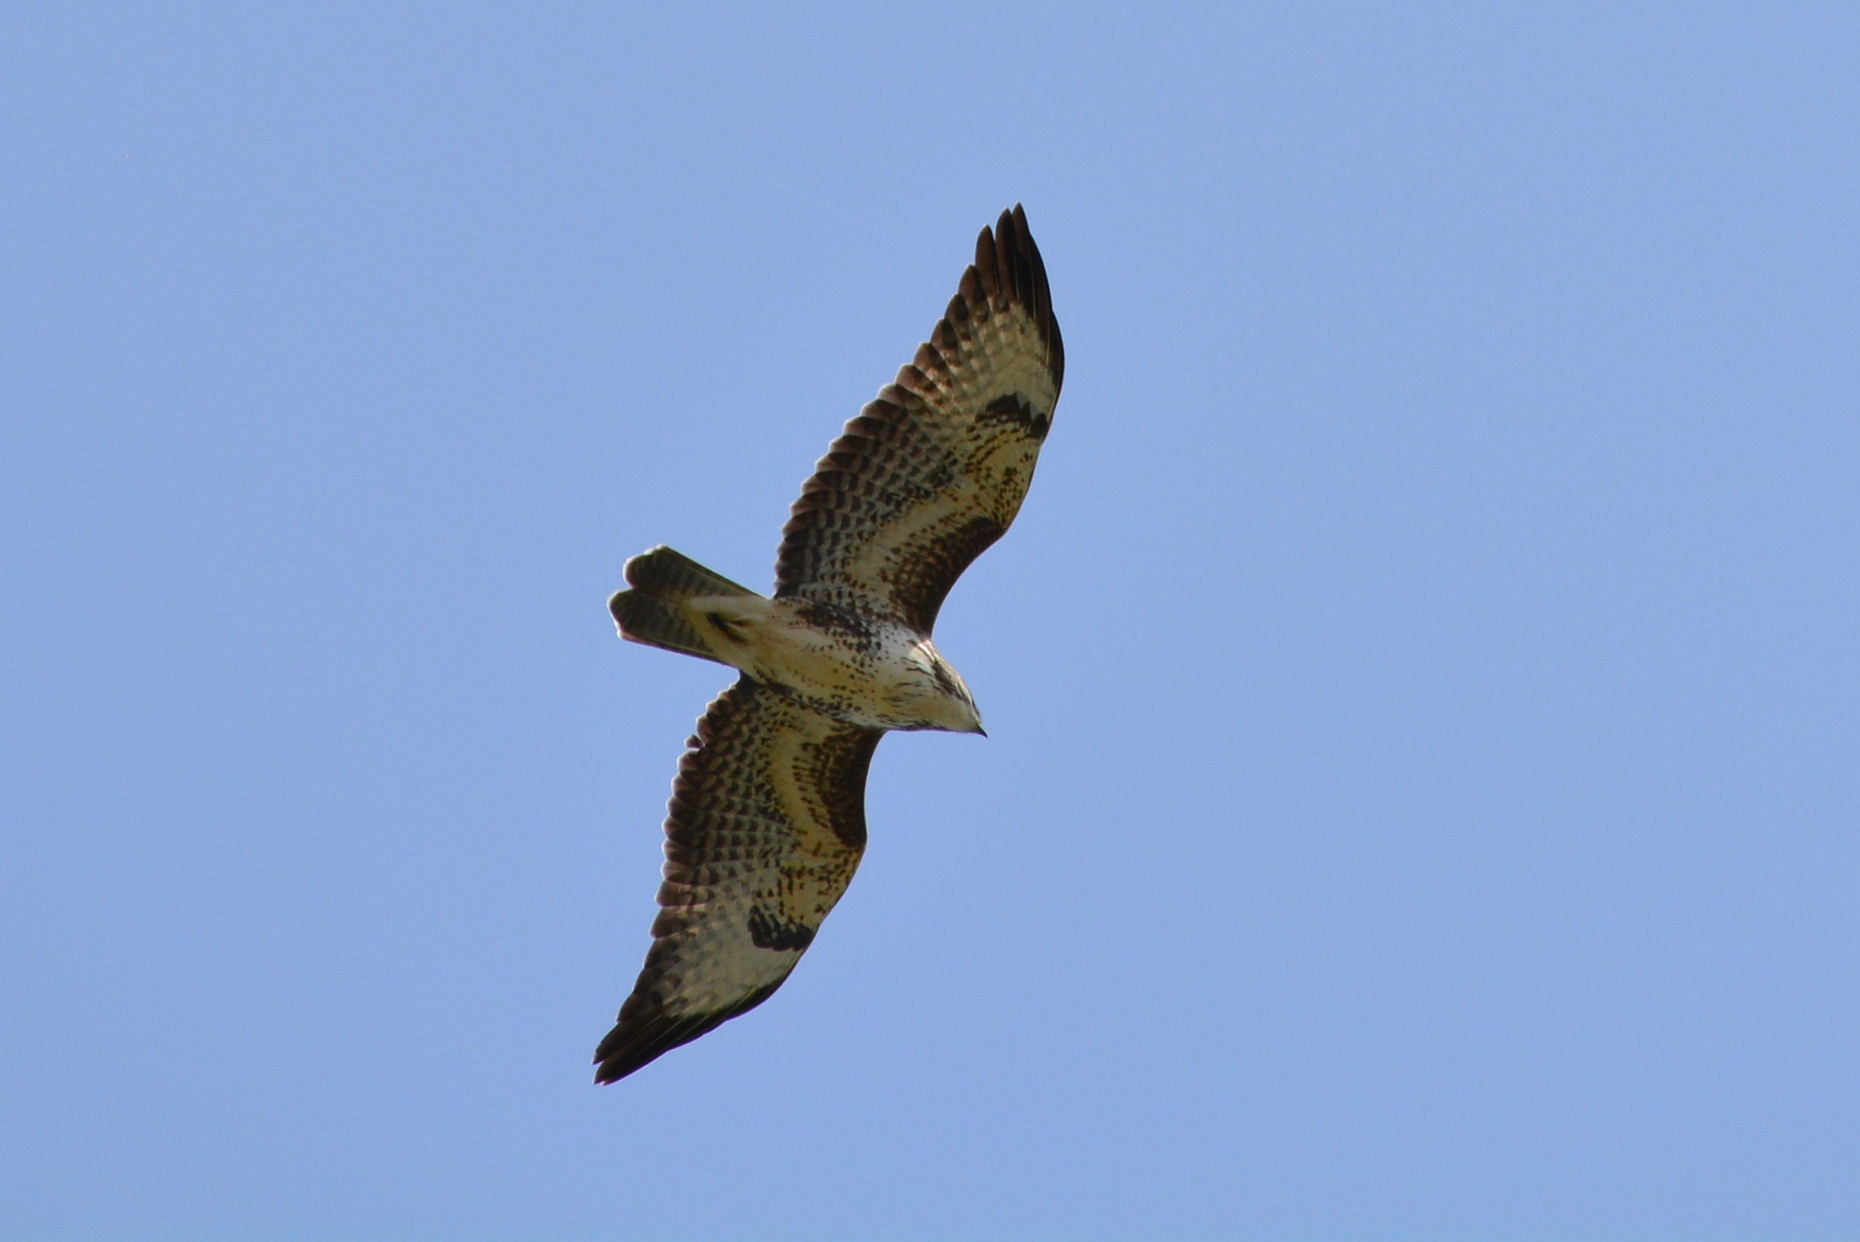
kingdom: Animalia
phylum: Chordata
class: Aves
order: Accipitriformes
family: Accipitridae
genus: Buteo
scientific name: Buteo buteo
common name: Common buzzard
